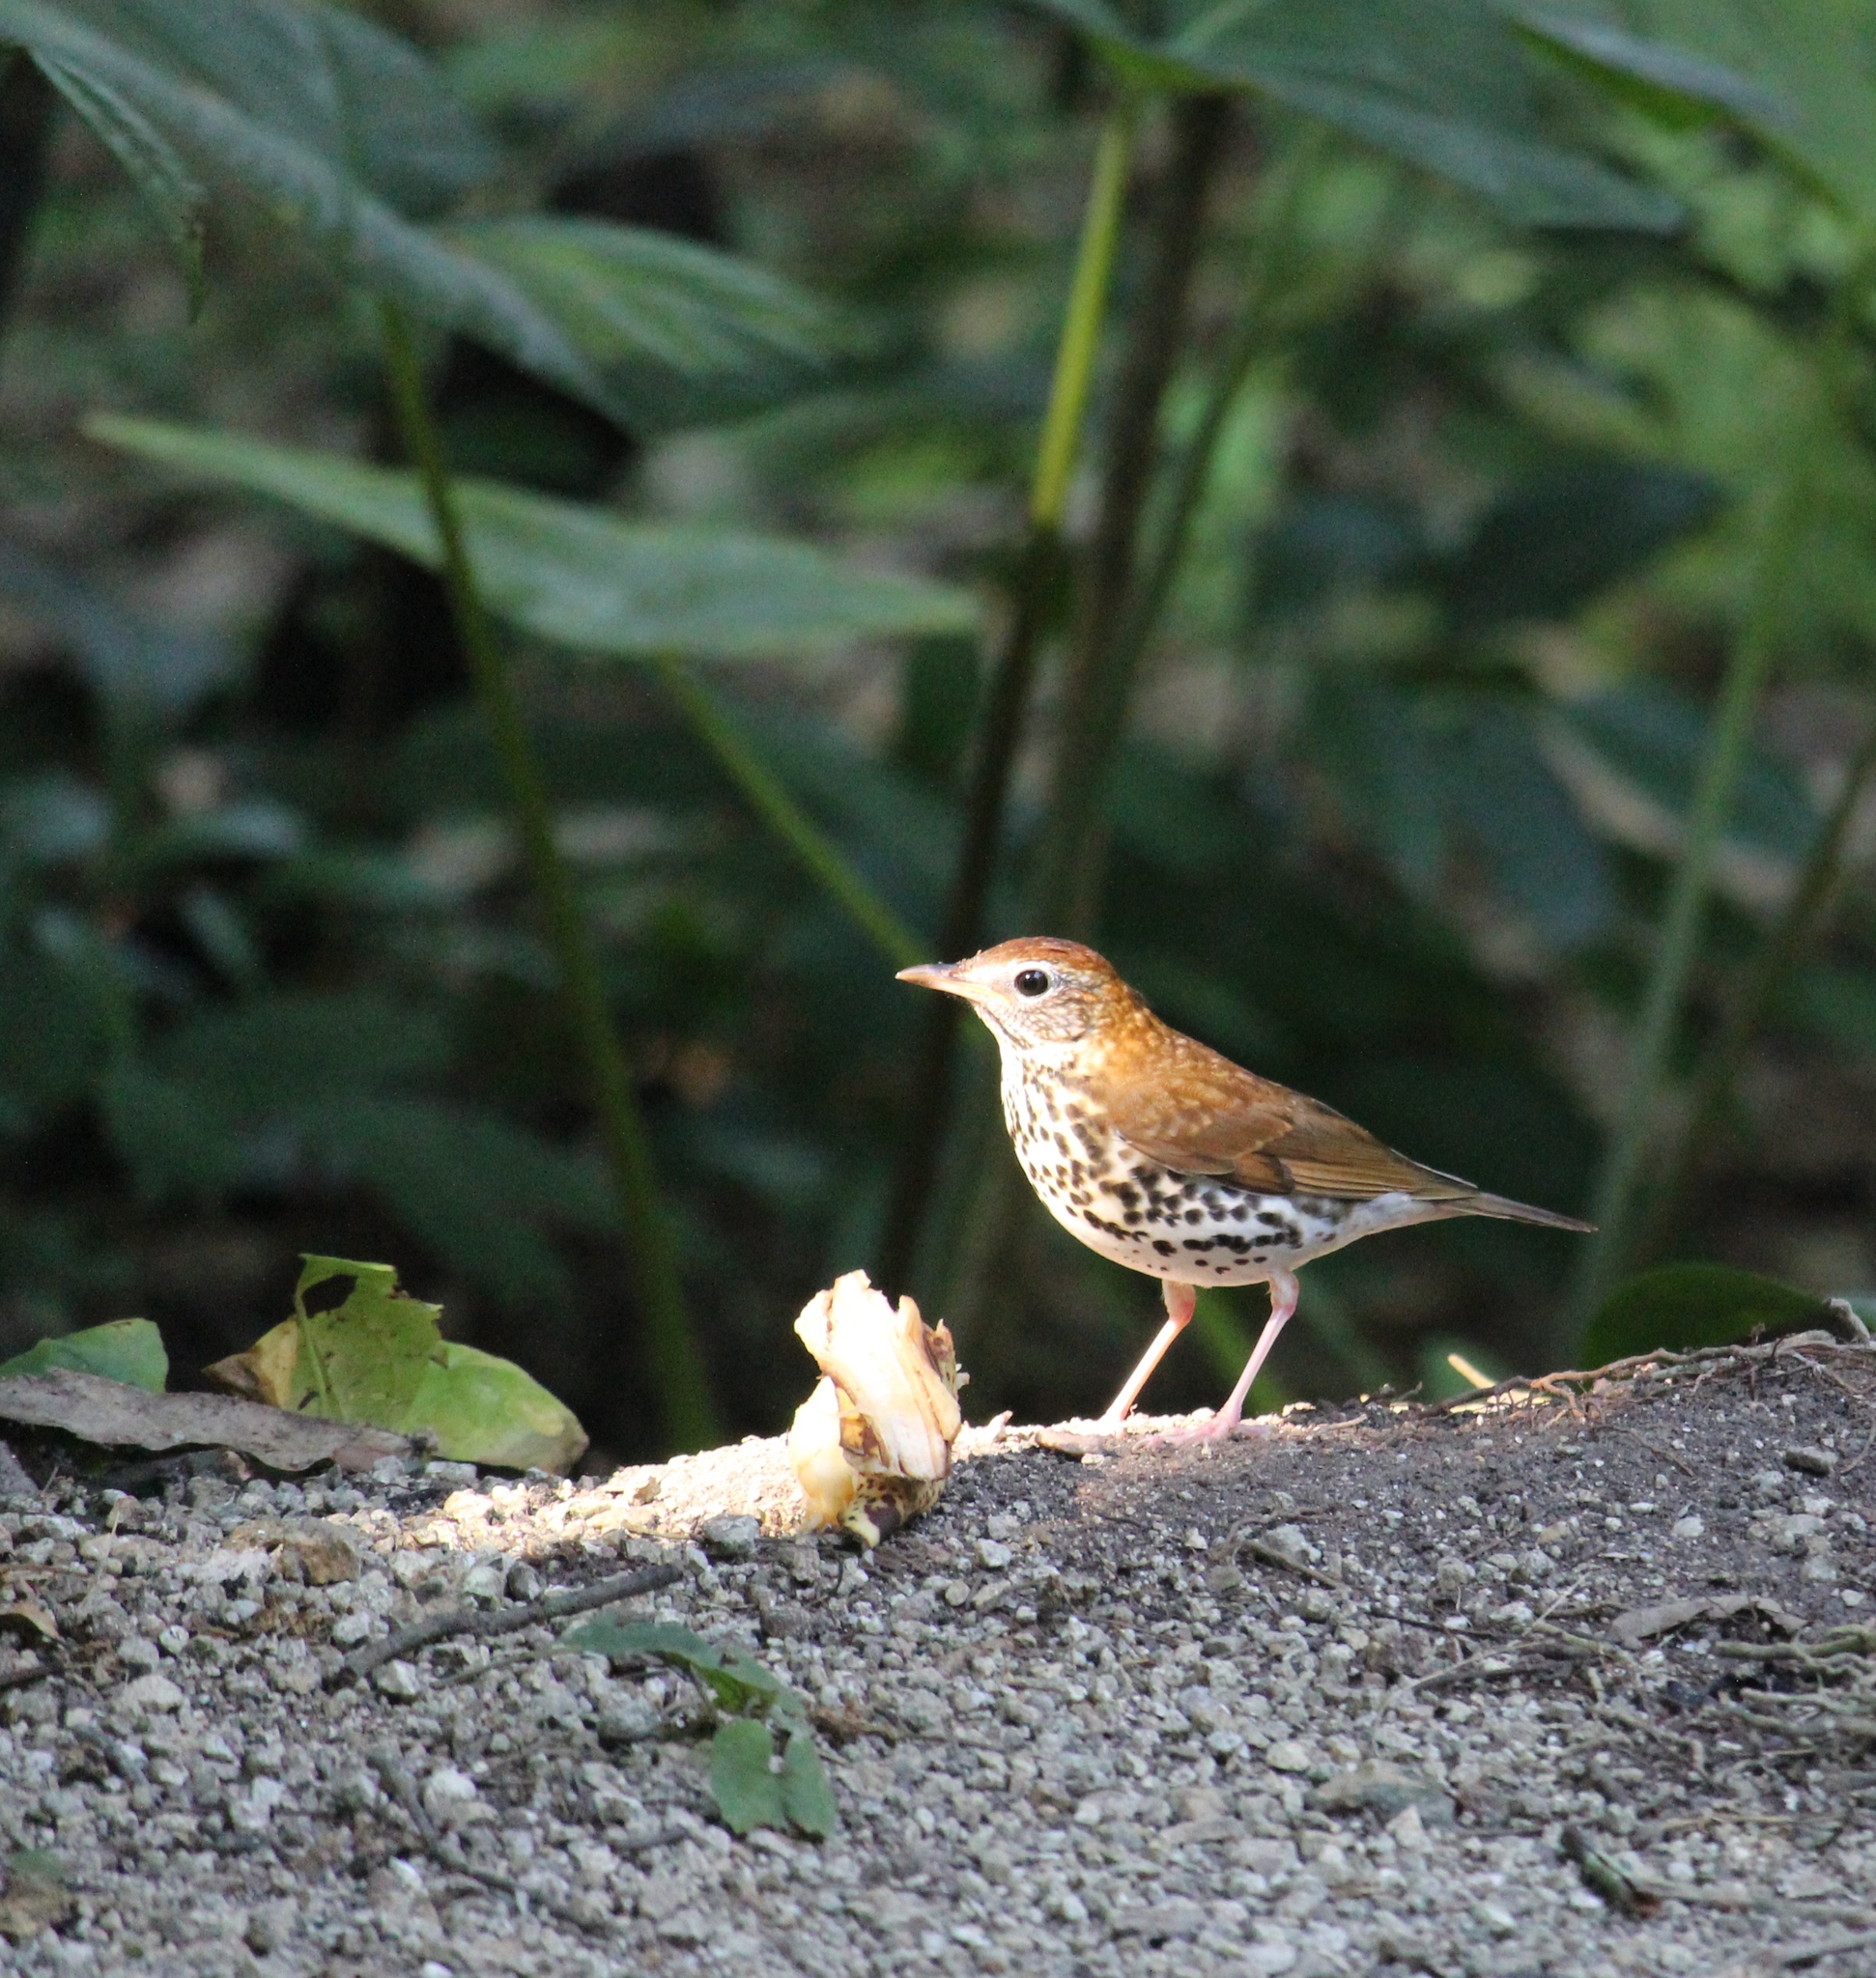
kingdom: Animalia
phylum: Chordata
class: Aves
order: Passeriformes
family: Turdidae
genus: Hylocichla
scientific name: Hylocichla mustelina
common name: Wood thrush
